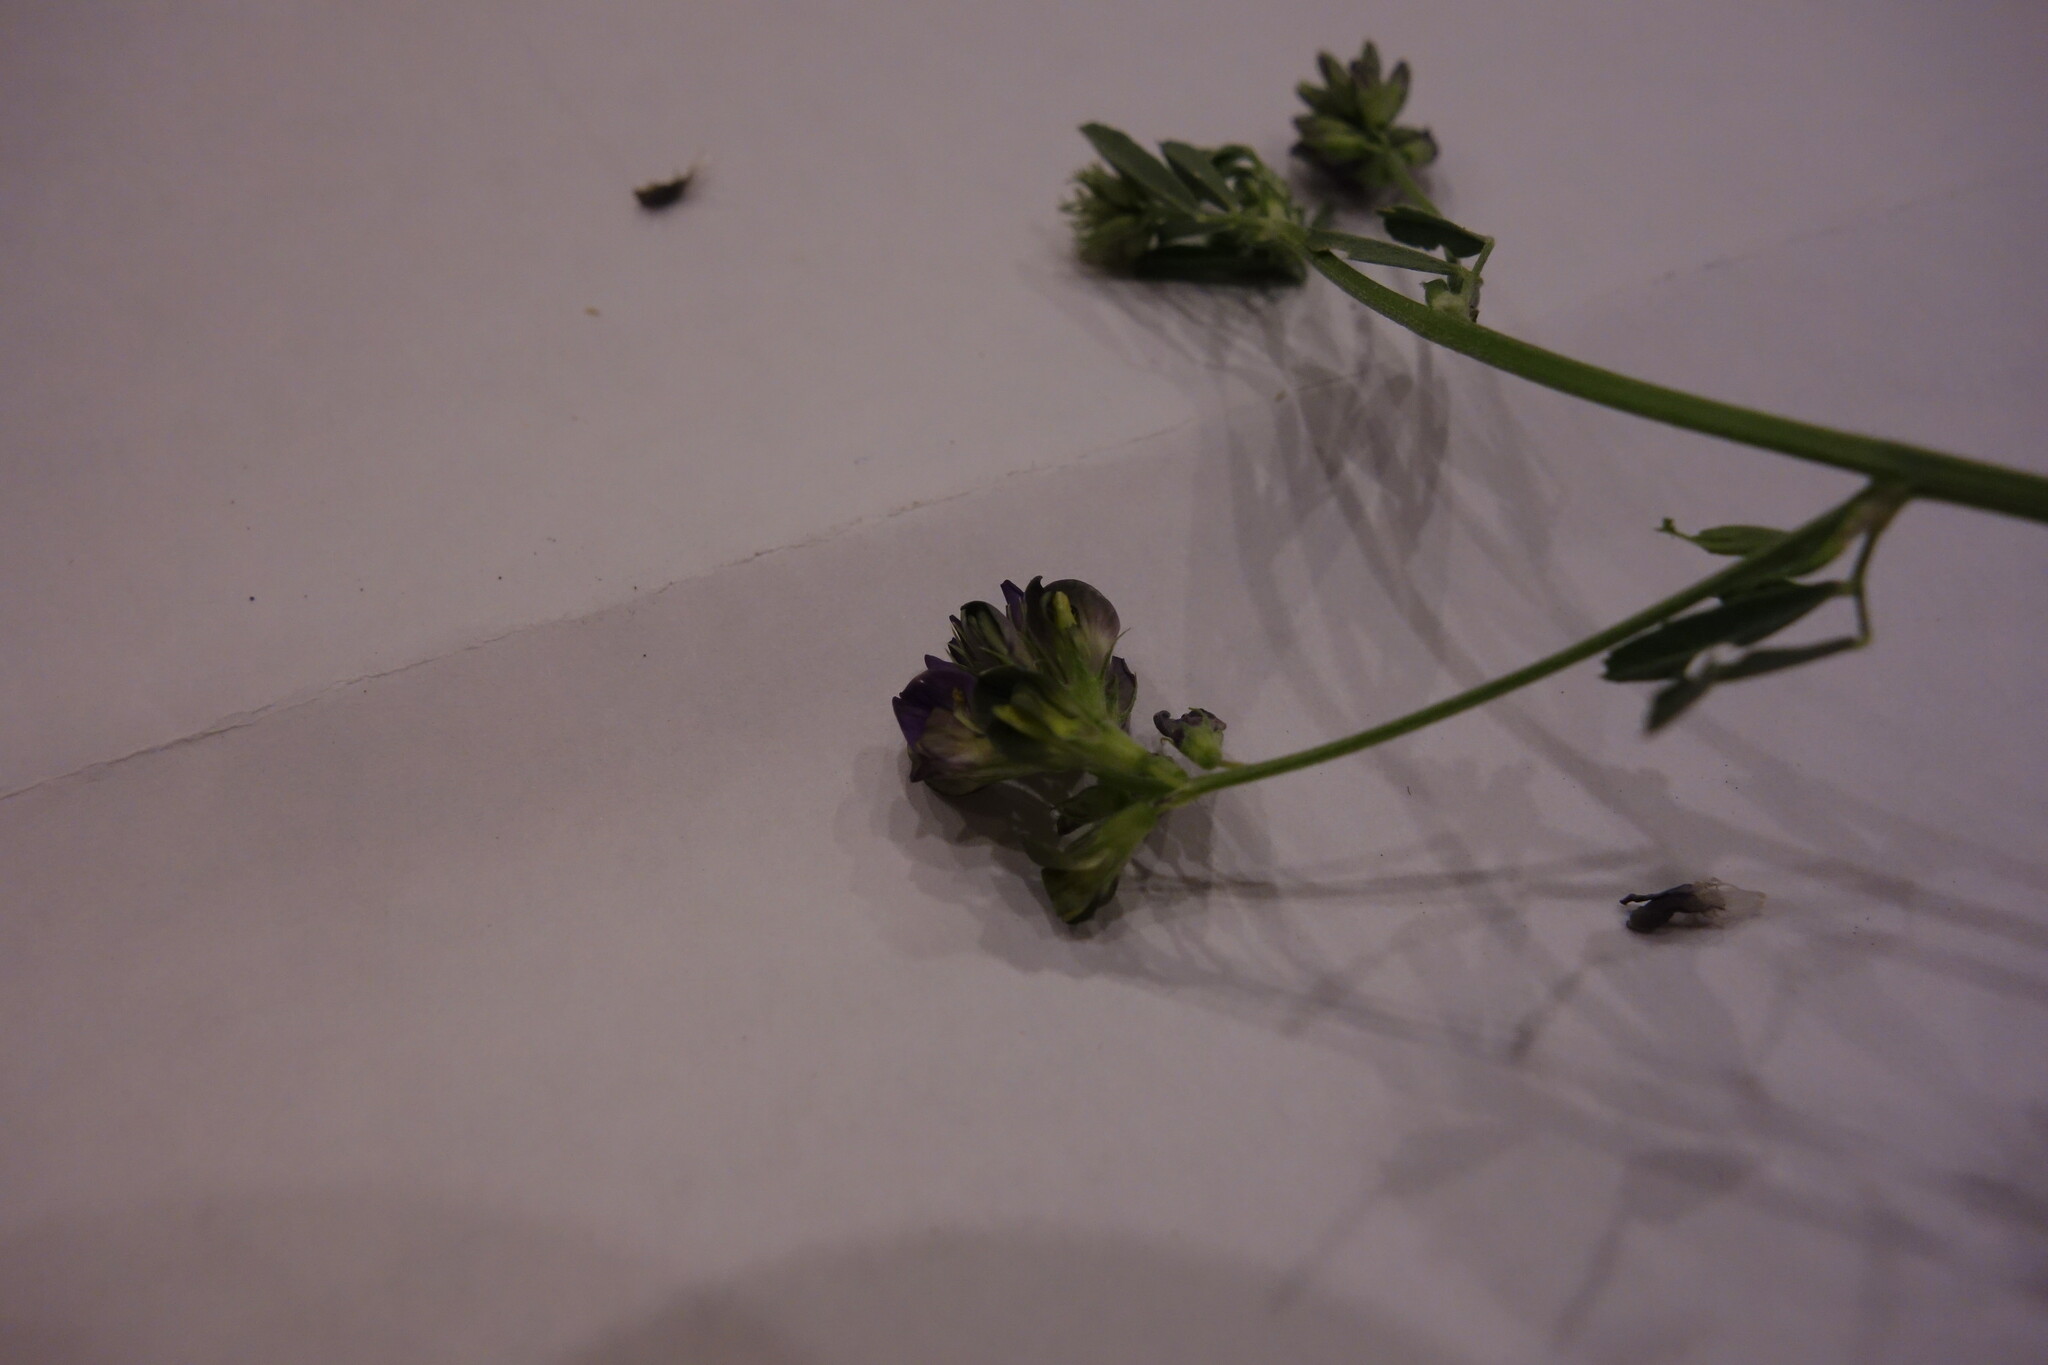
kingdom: Plantae
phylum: Tracheophyta
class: Magnoliopsida
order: Fabales
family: Fabaceae
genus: Medicago
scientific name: Medicago varia
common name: Sand lucerne
